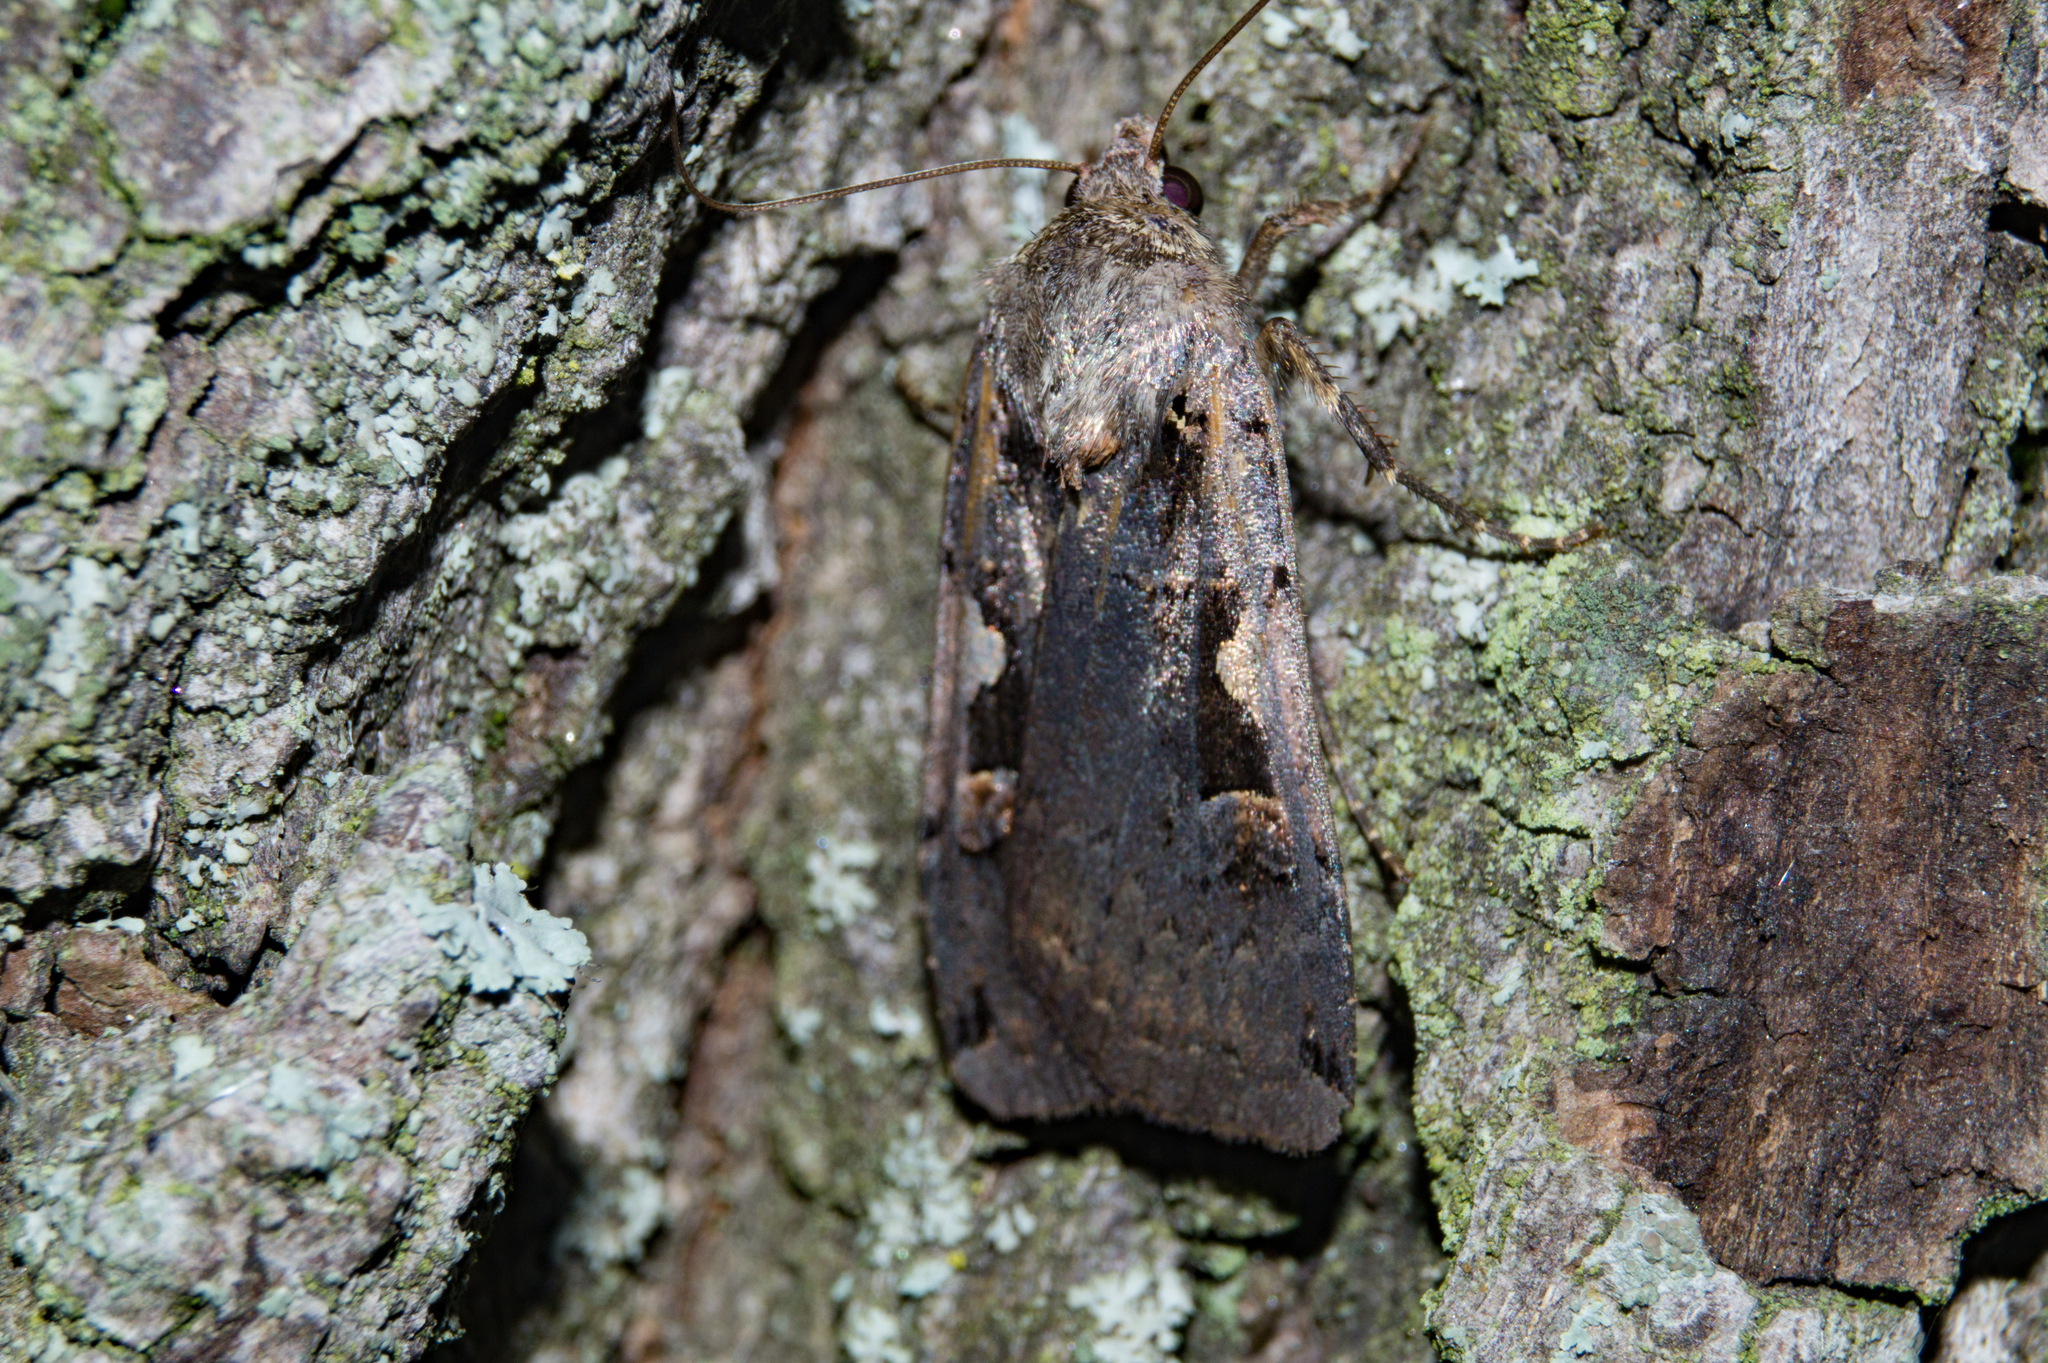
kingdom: Animalia
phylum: Arthropoda
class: Insecta
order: Lepidoptera
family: Noctuidae
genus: Xestia
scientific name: Xestia c-nigrum
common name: Setaceous hebrew character
